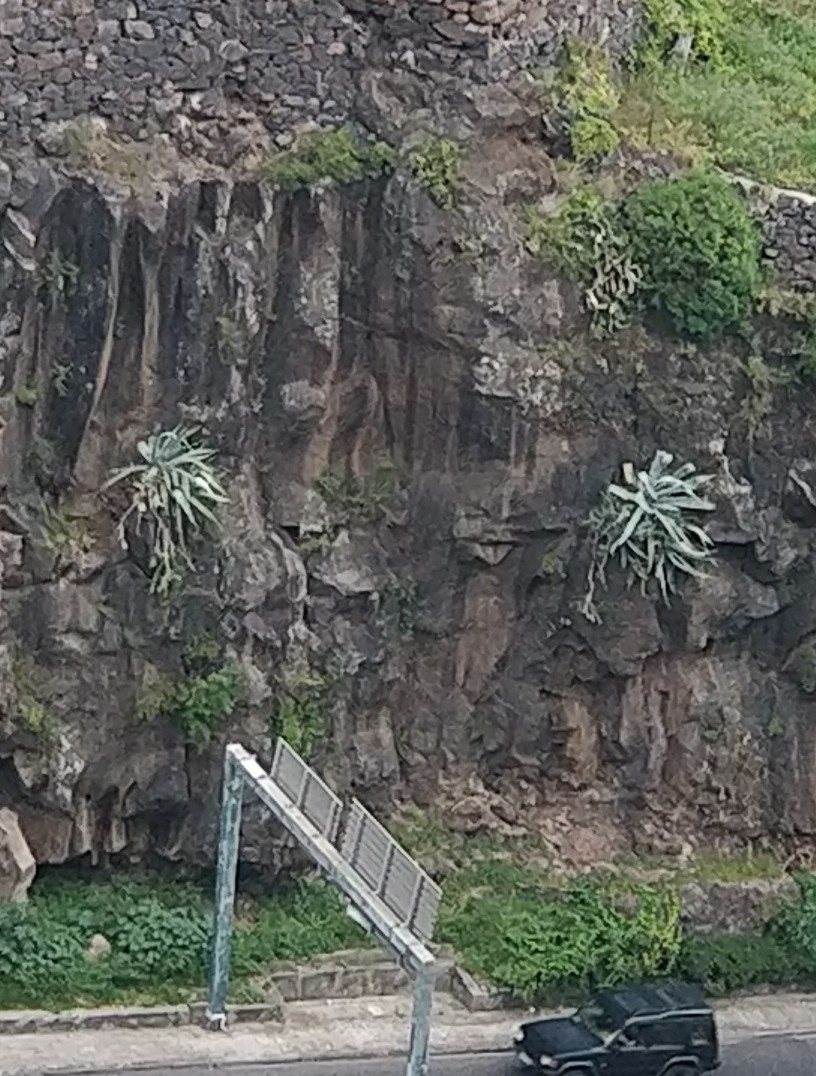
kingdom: Plantae
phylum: Tracheophyta
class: Liliopsida
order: Asparagales
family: Asparagaceae
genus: Agave
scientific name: Agave americana
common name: Centuryplant
